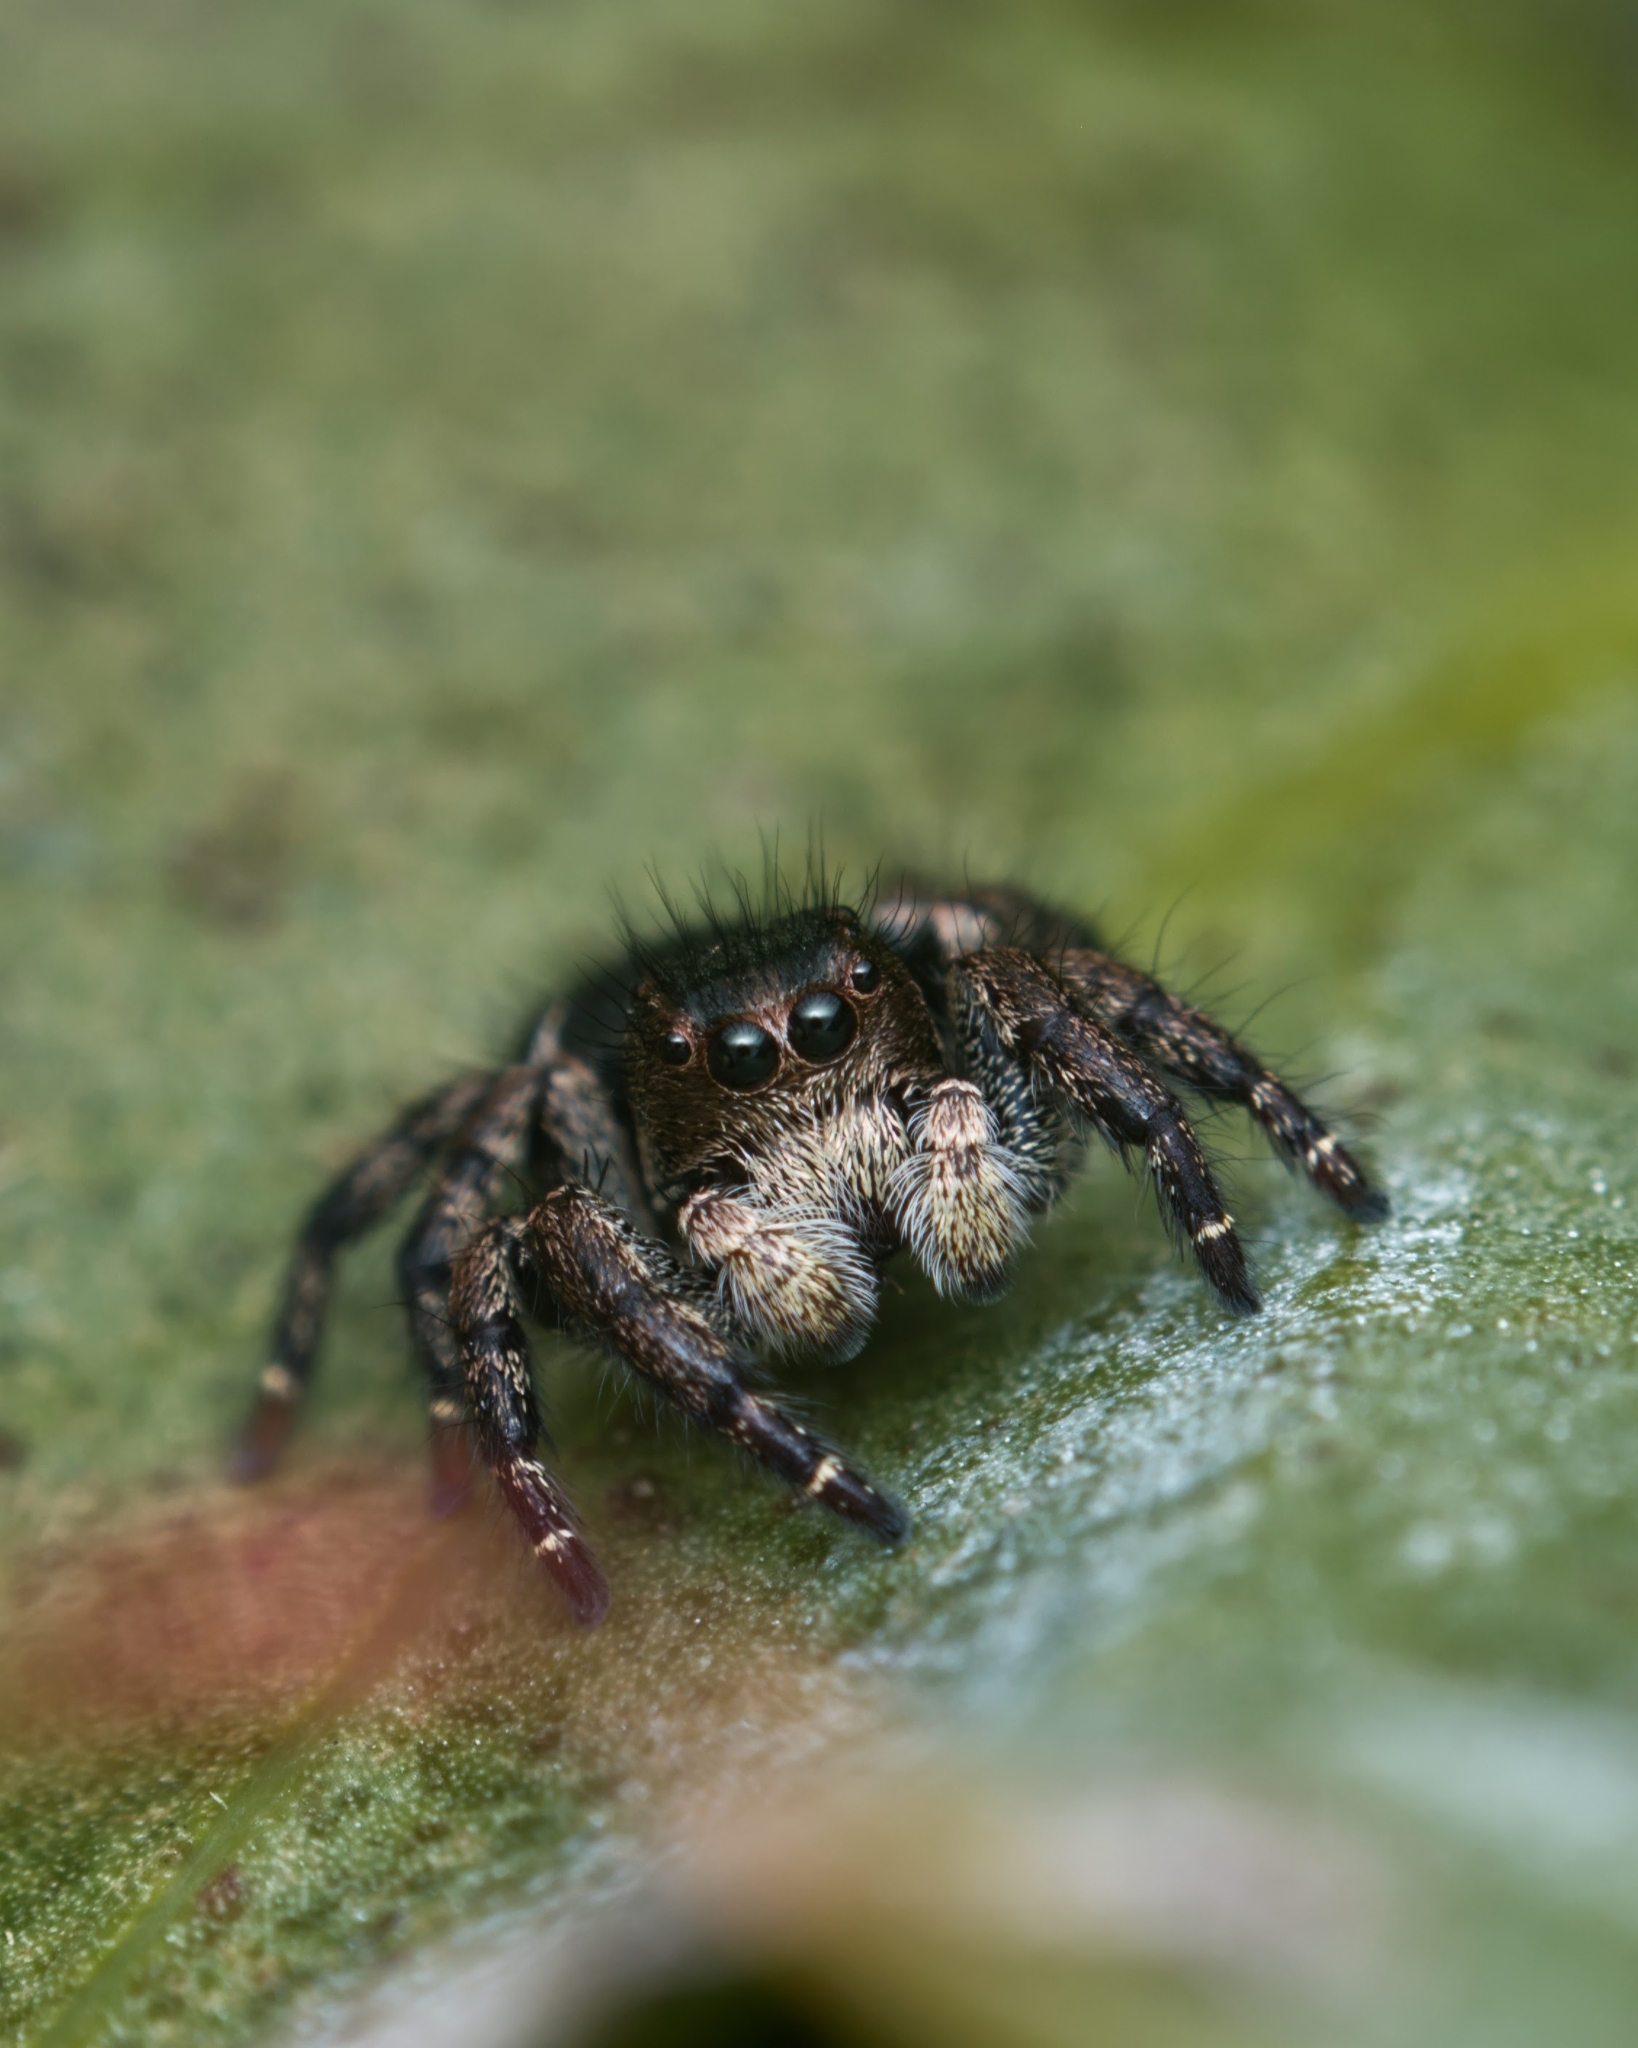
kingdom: Animalia
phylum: Arthropoda
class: Arachnida
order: Araneae
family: Salticidae
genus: Baryphas
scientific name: Baryphas ahenus
